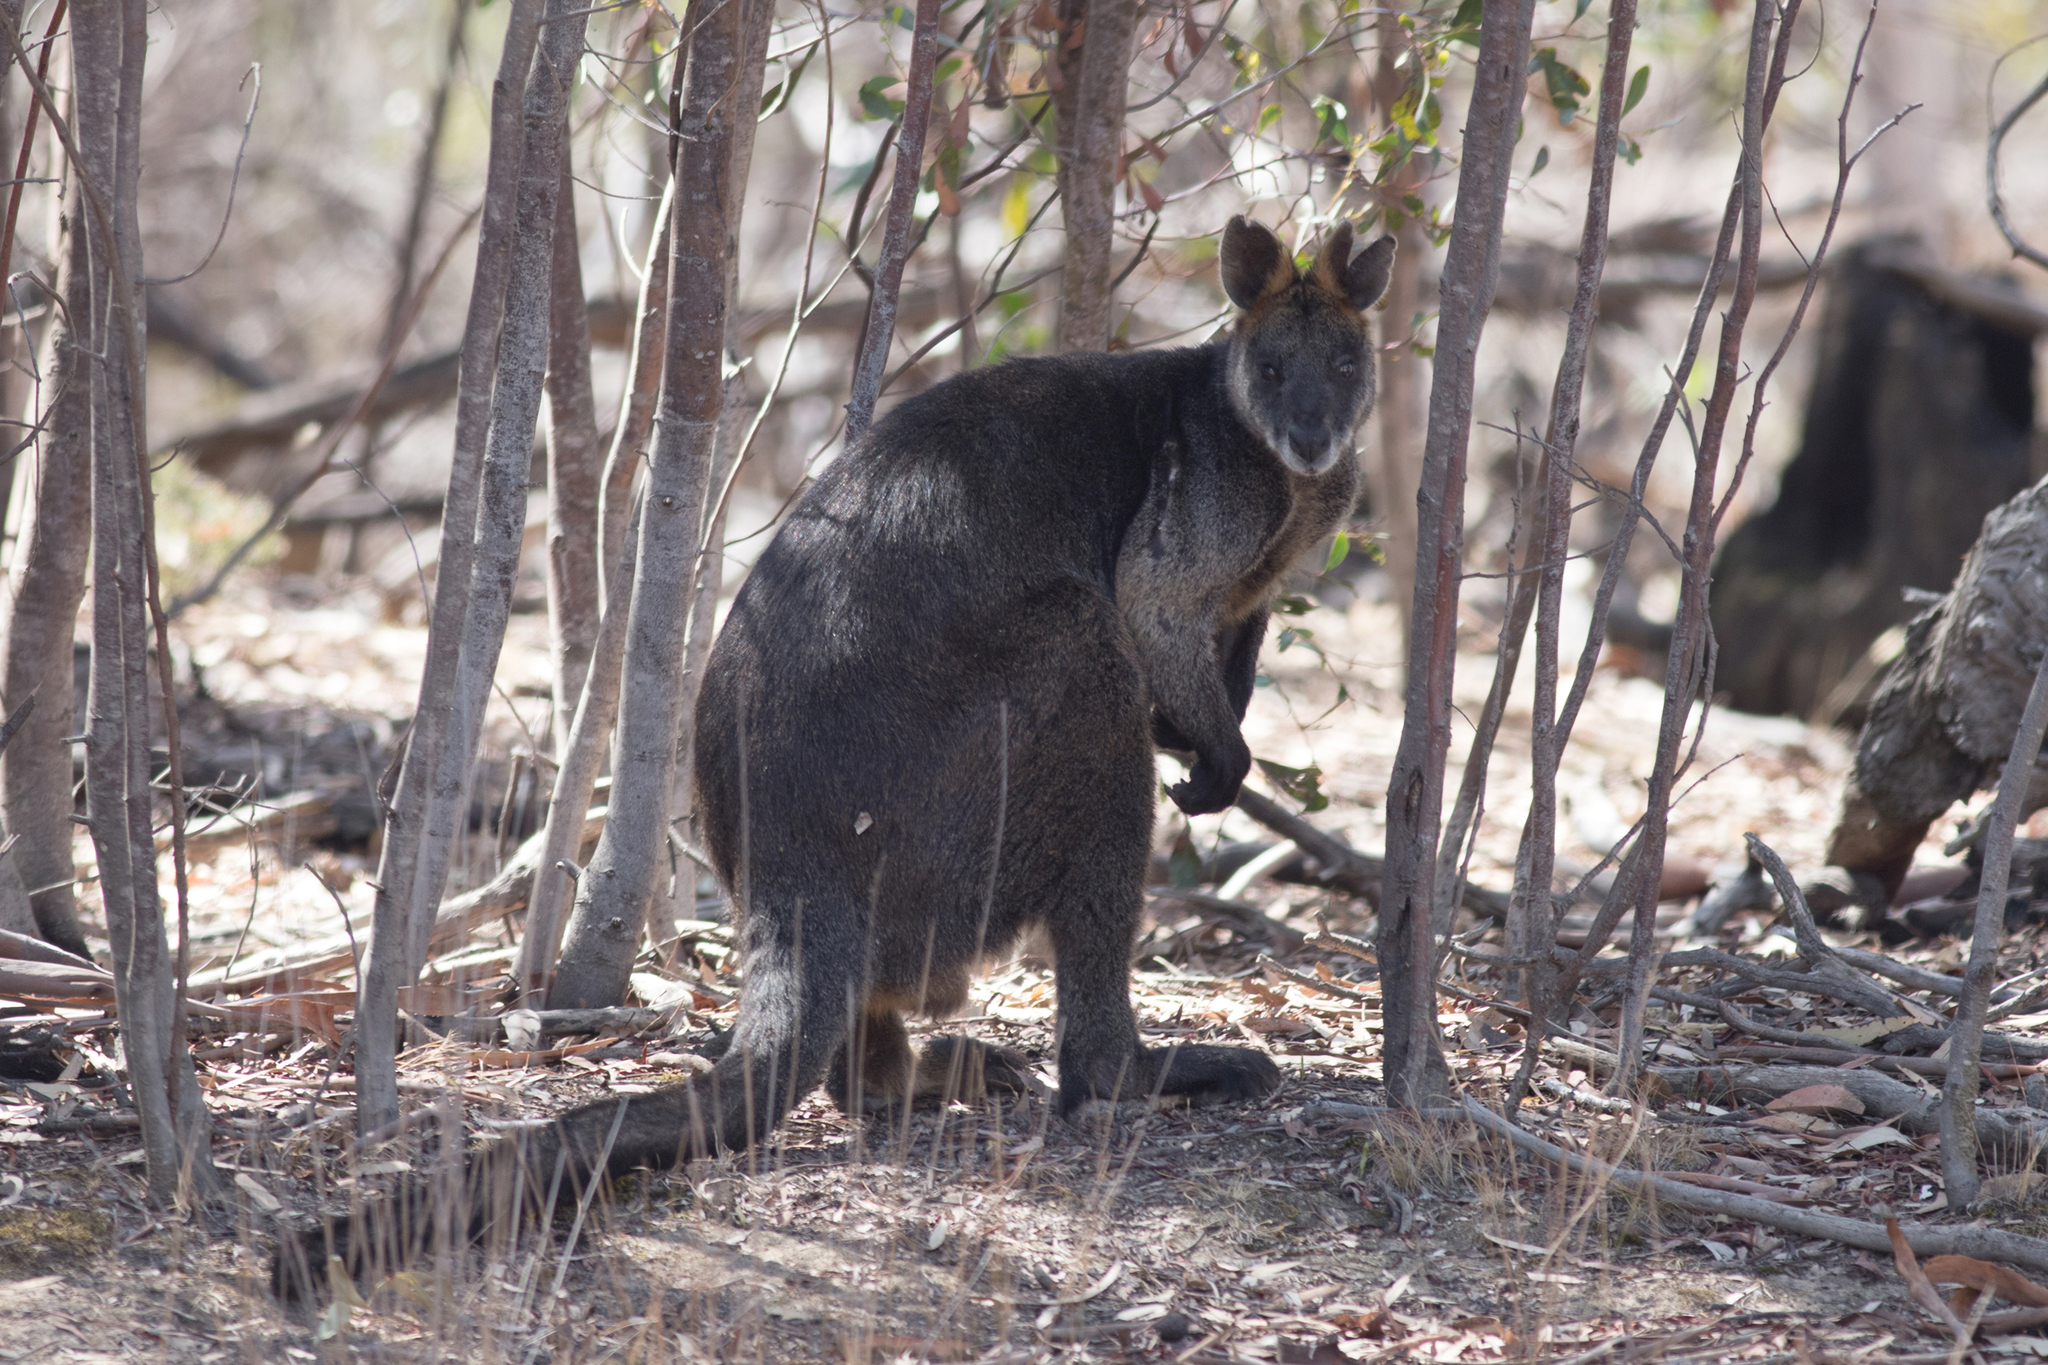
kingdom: Animalia
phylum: Chordata
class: Mammalia
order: Diprotodontia
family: Macropodidae
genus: Wallabia
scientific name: Wallabia bicolor
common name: Swamp wallaby
